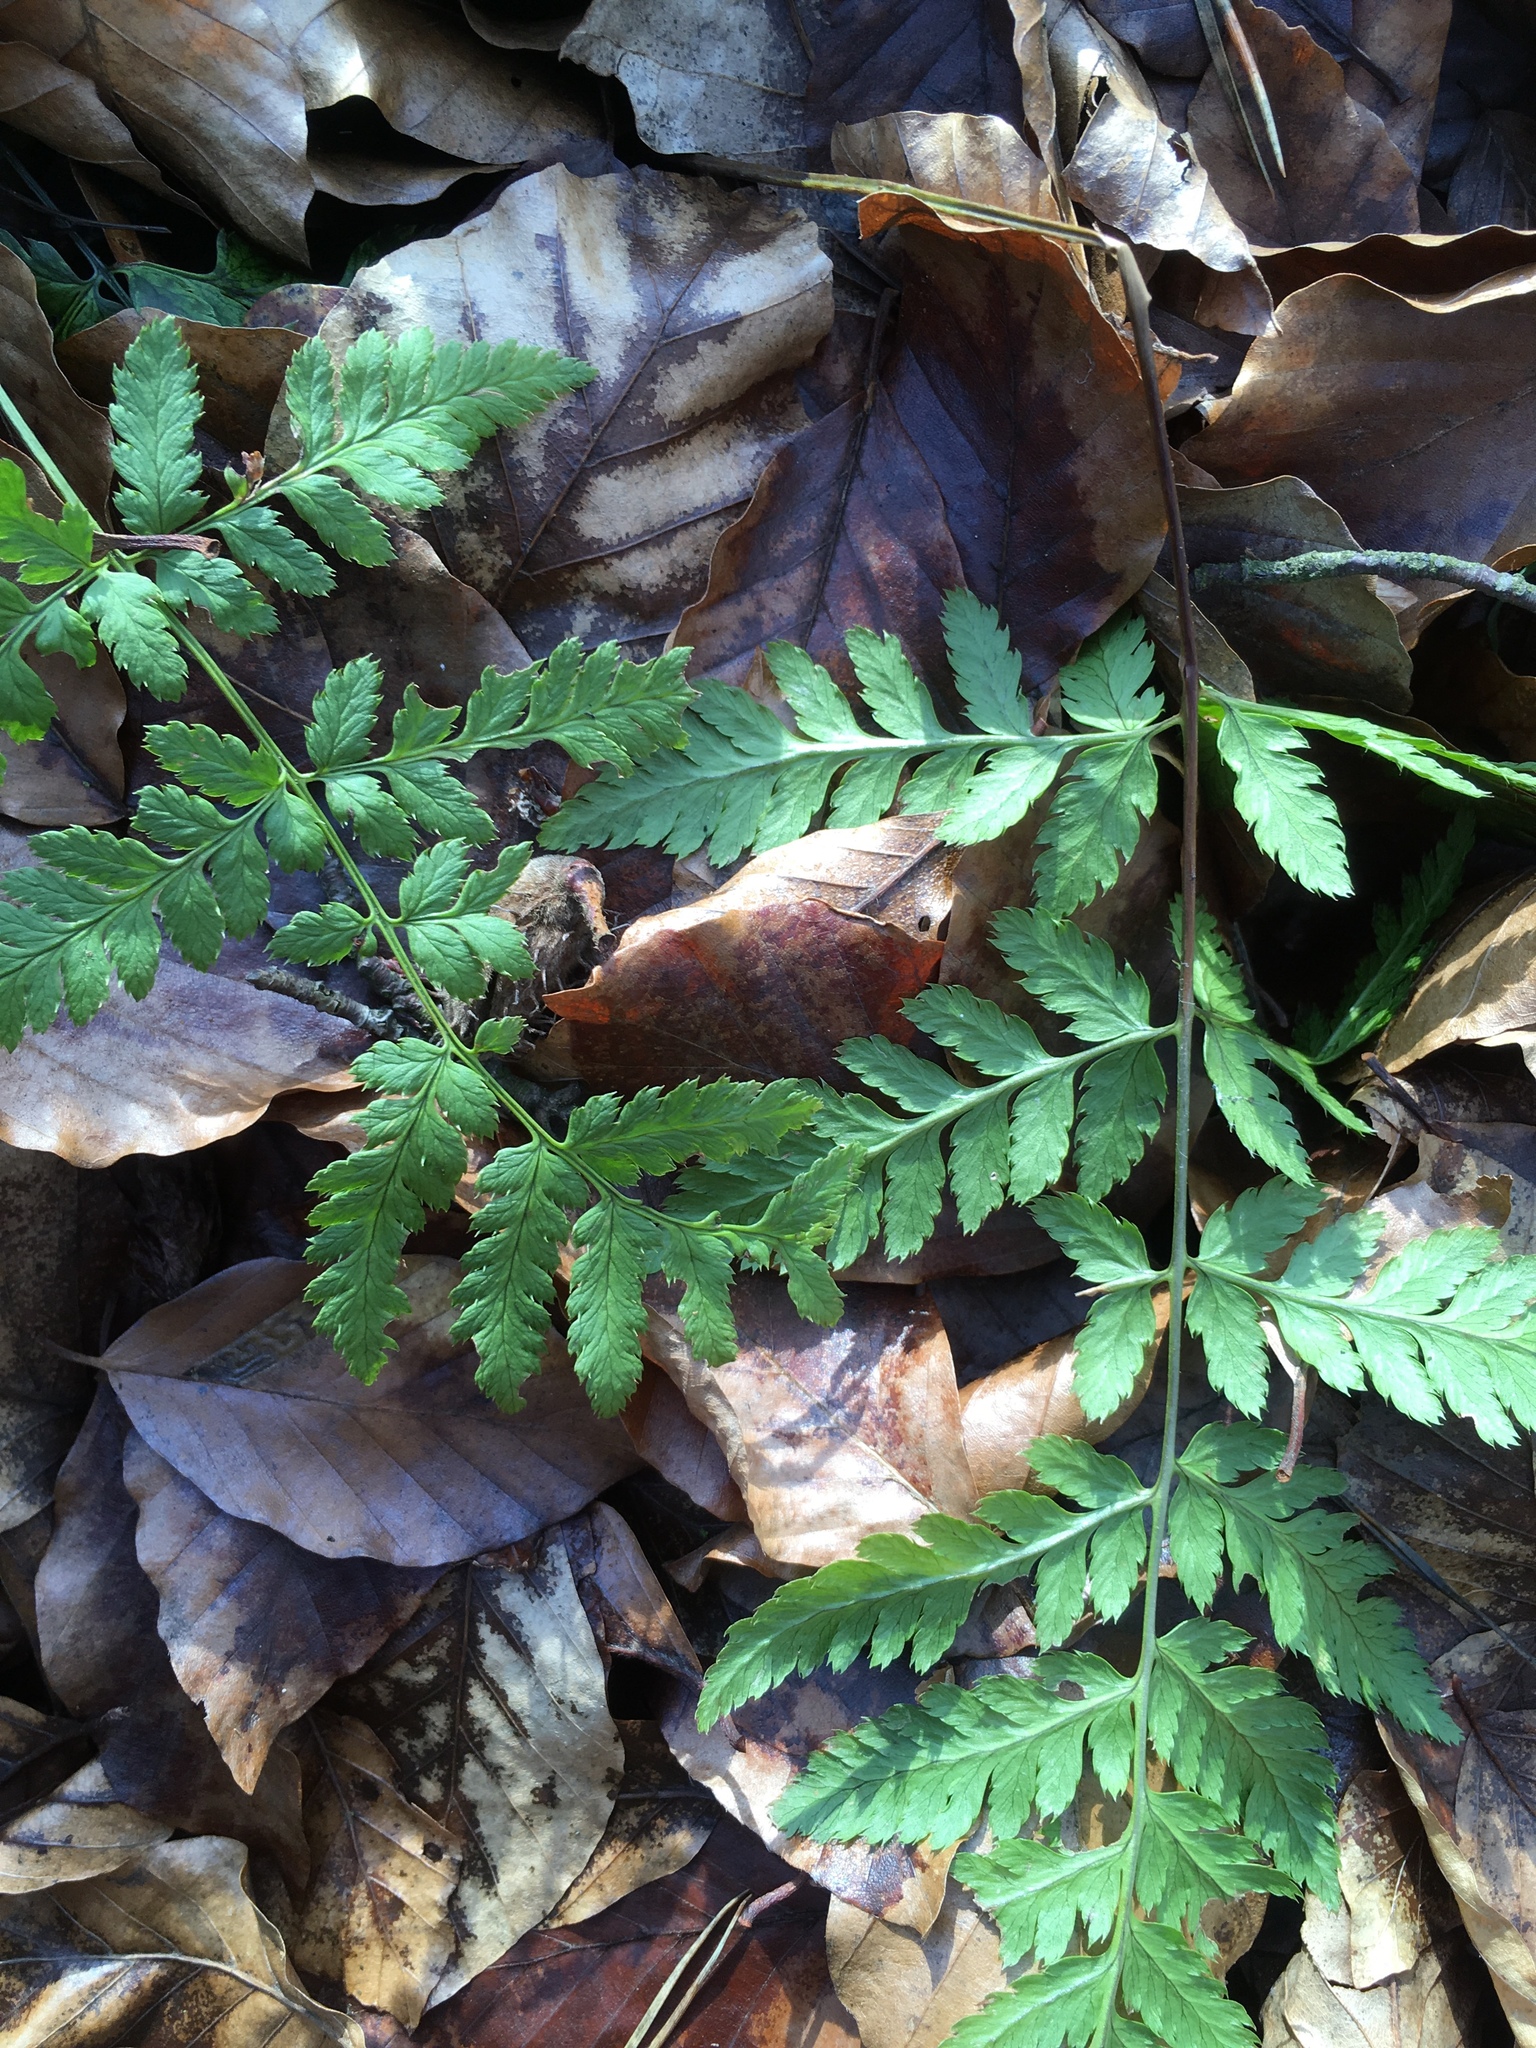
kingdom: Plantae
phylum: Tracheophyta
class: Polypodiopsida
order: Polypodiales
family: Dryopteridaceae
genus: Dryopteris
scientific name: Dryopteris carthusiana
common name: Narrow buckler-fern
